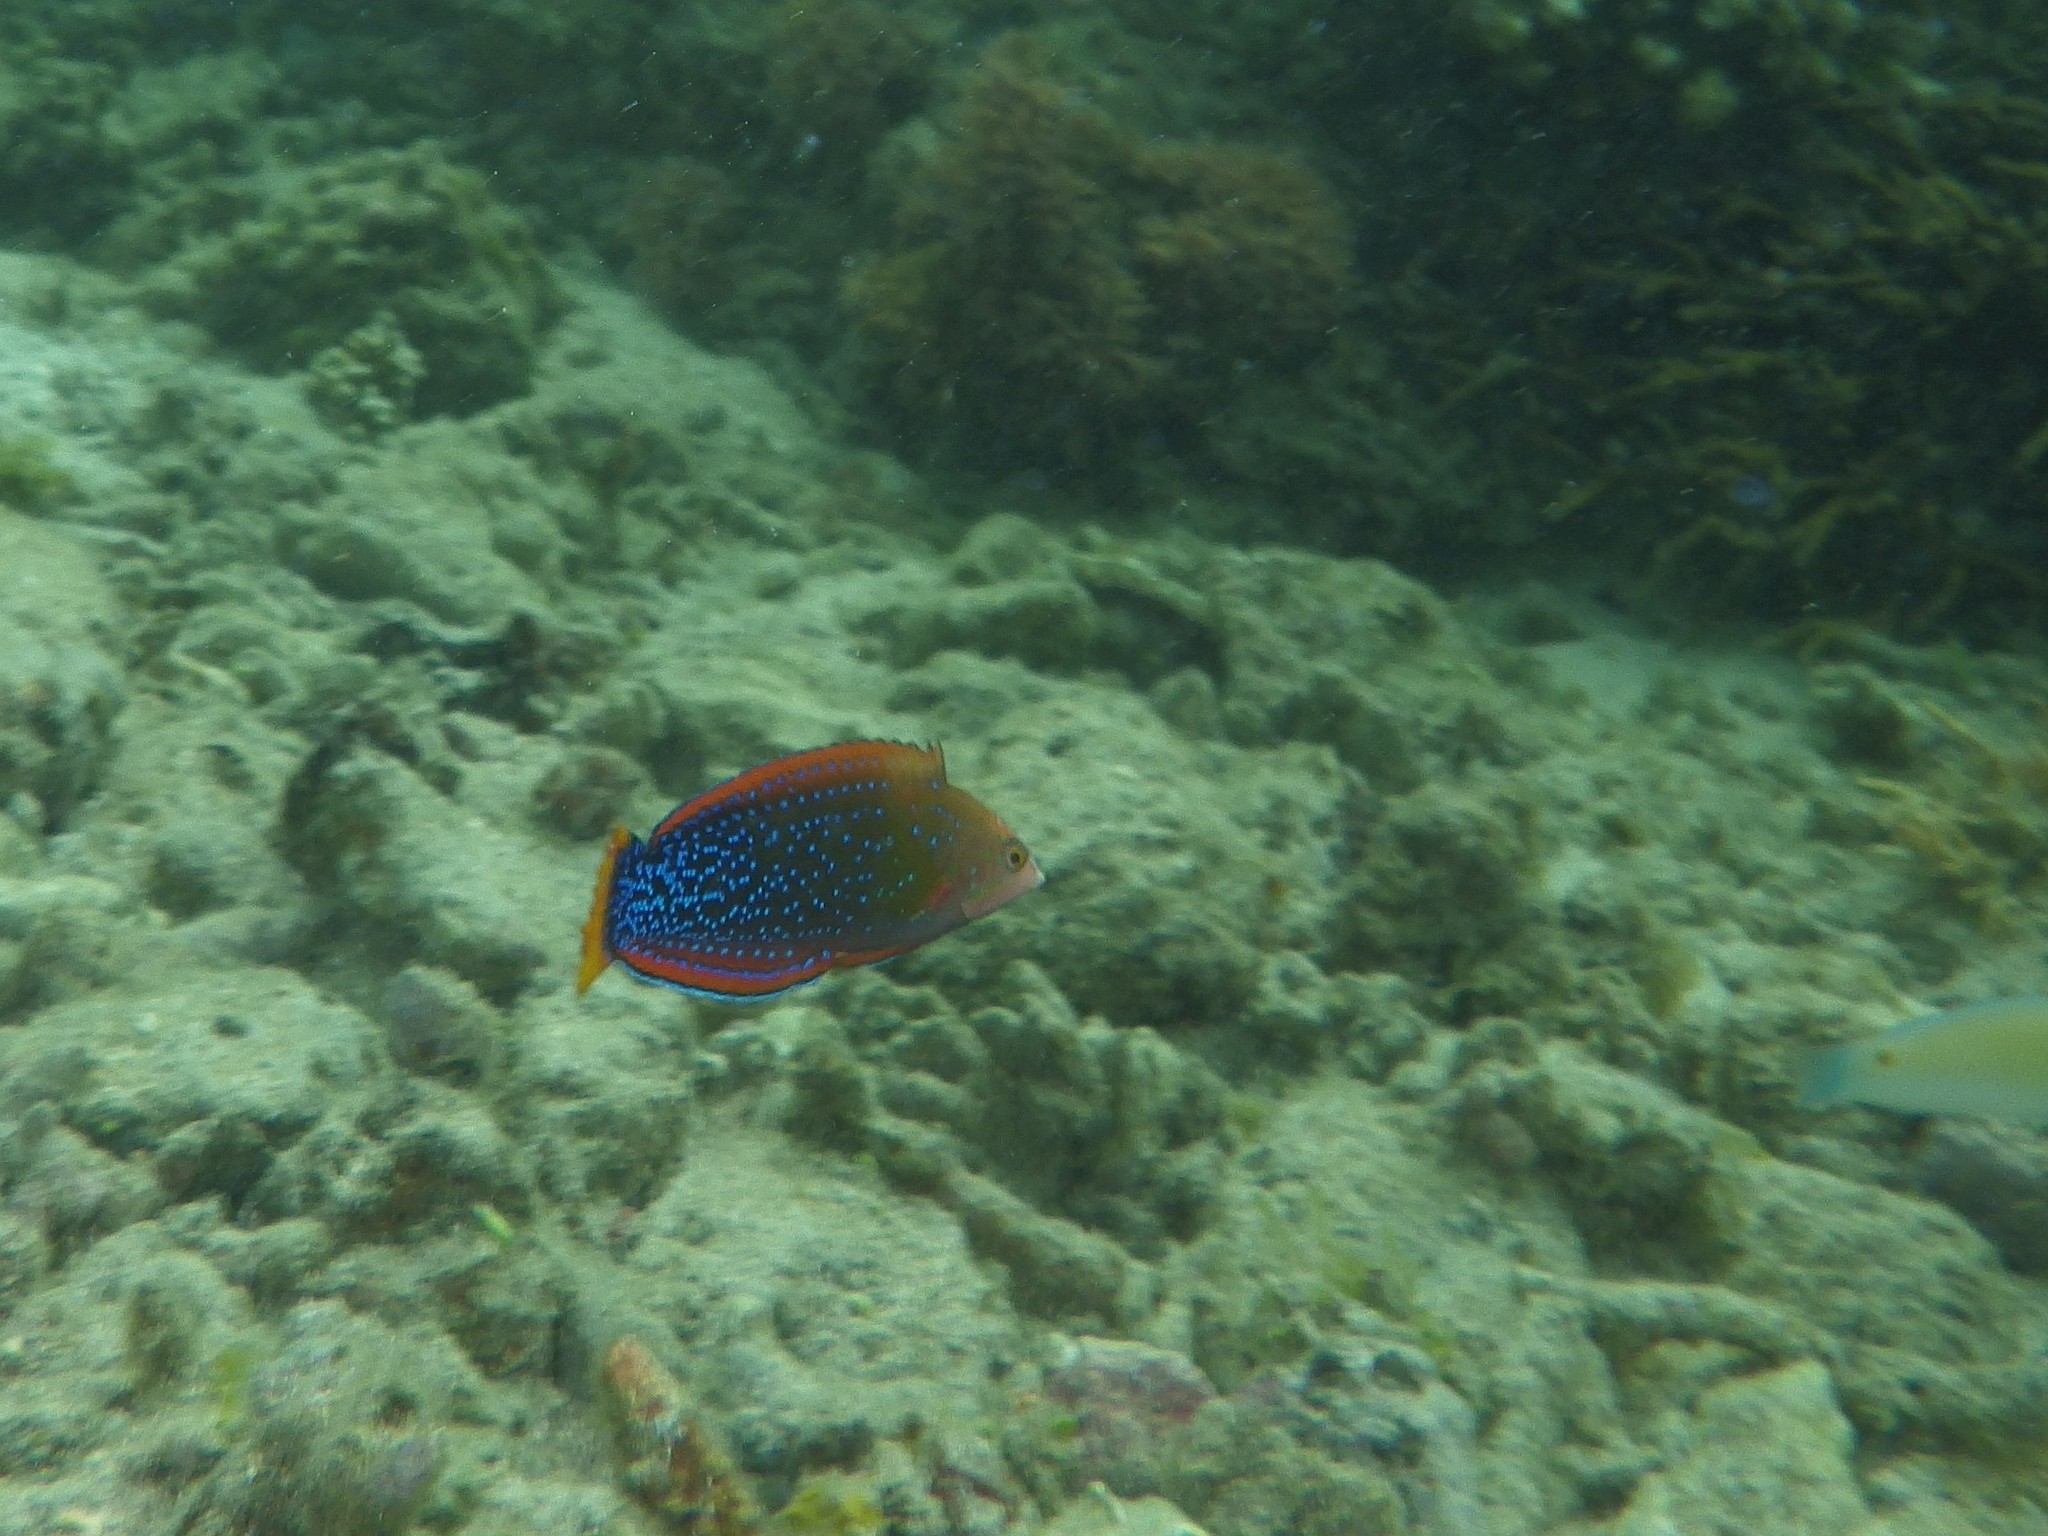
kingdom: Animalia
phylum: Chordata
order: Perciformes
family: Labridae
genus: Coris
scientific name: Coris gaimard
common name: Yellowtail coris
